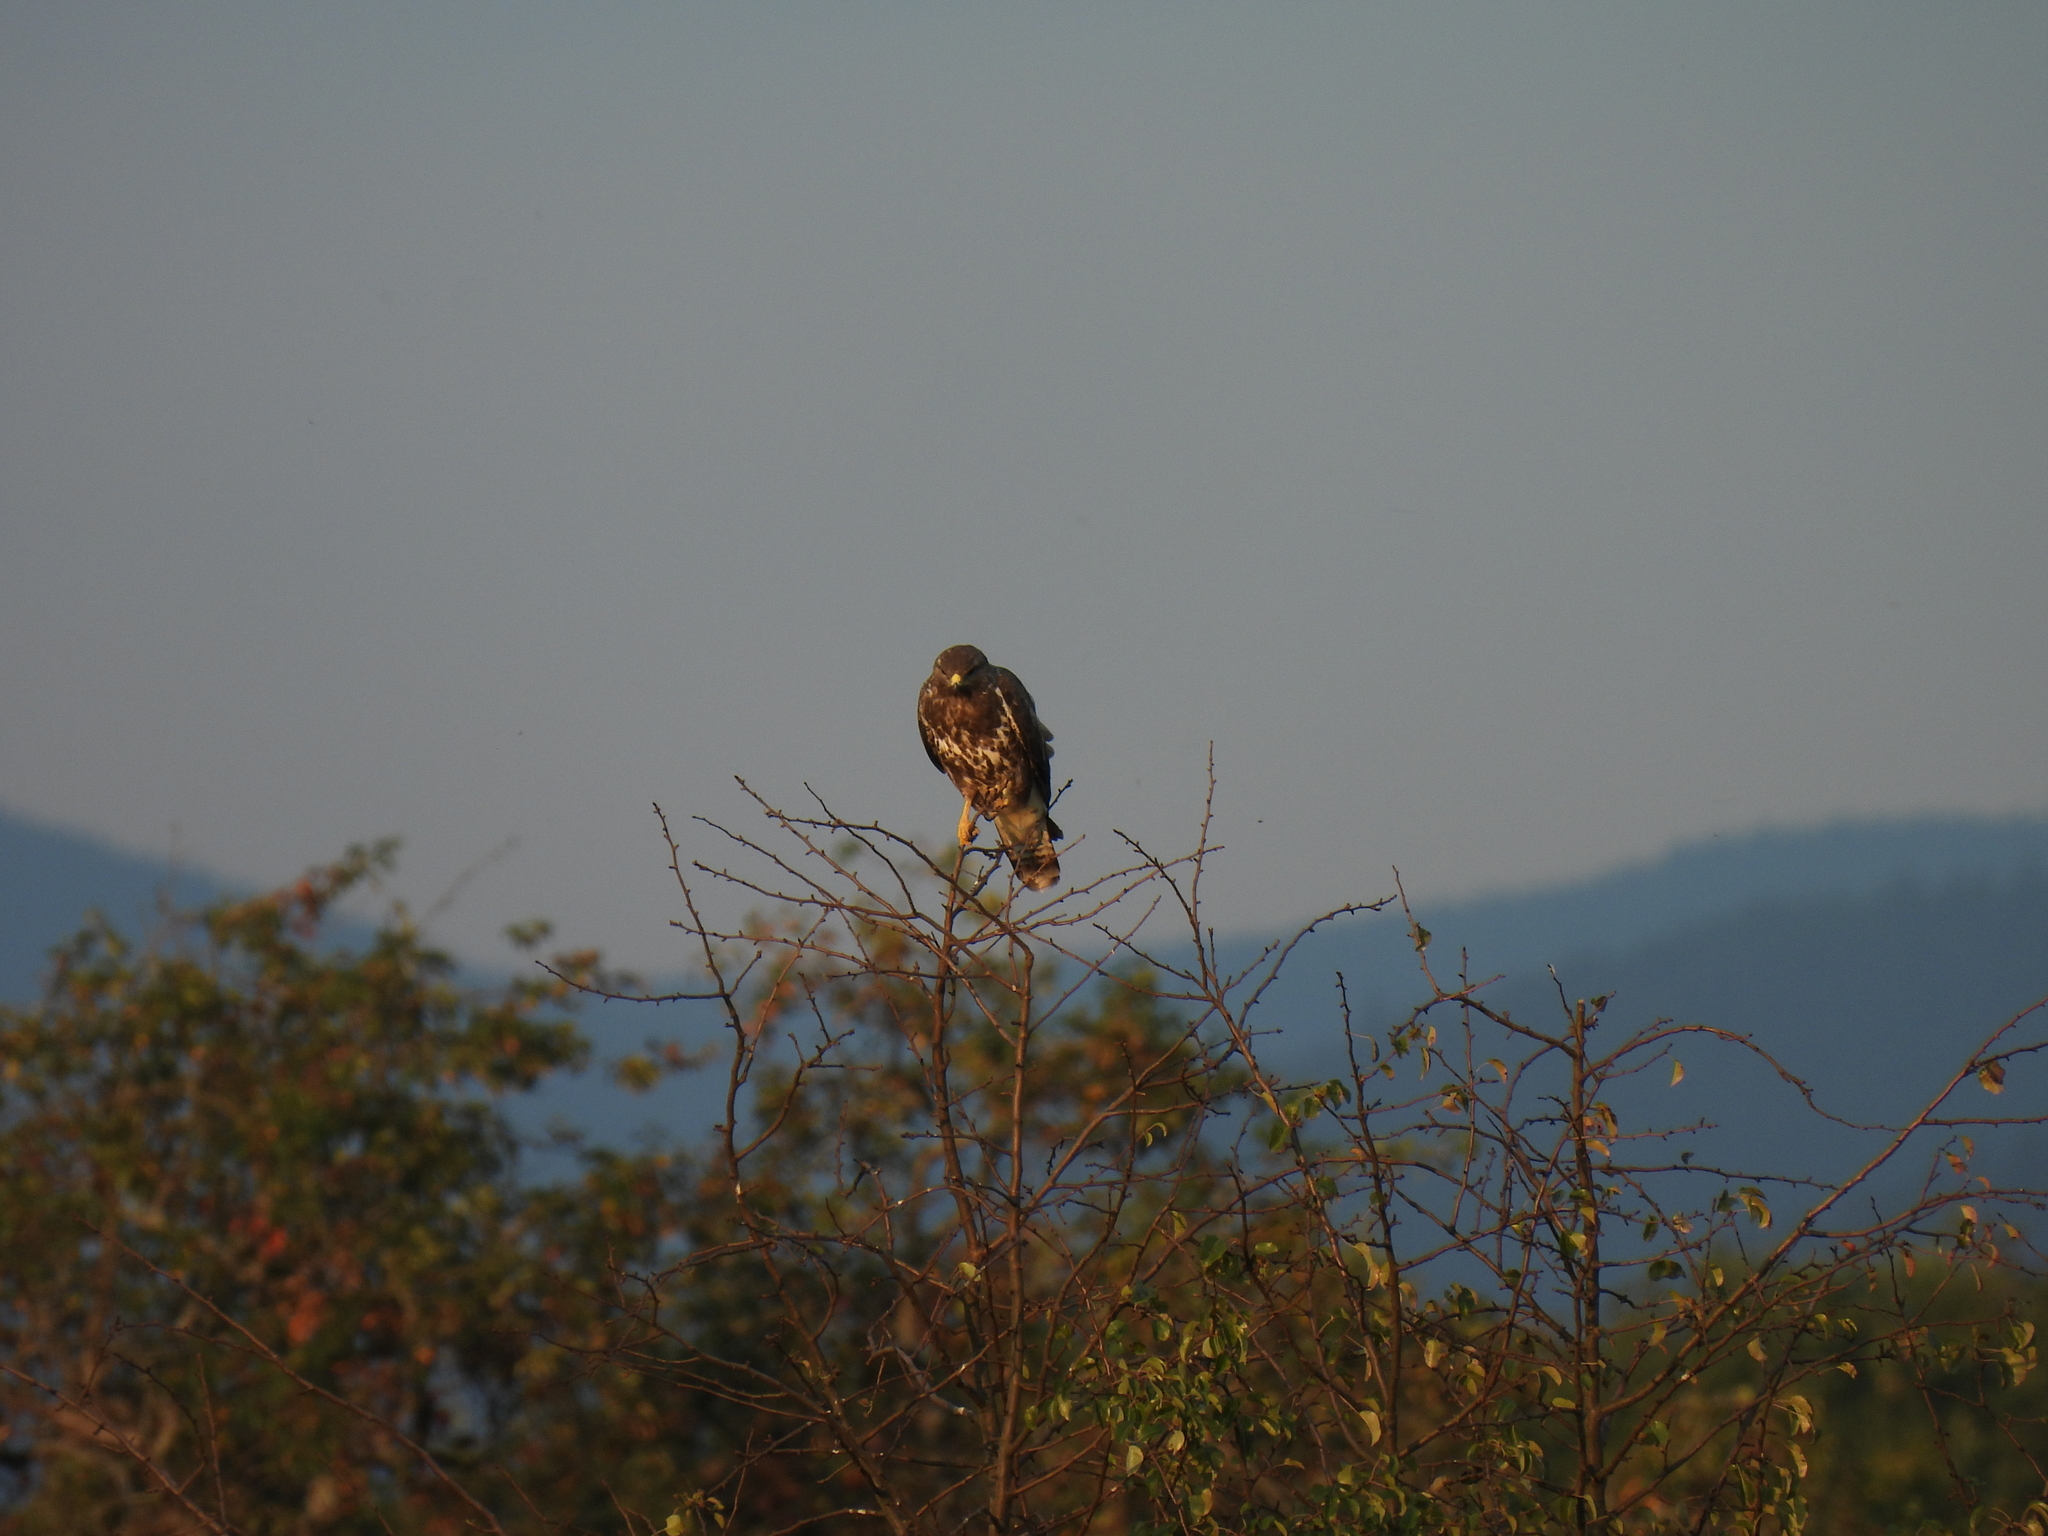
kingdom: Animalia
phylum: Chordata
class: Aves
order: Accipitriformes
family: Accipitridae
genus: Buteo
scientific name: Buteo buteo
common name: Common buzzard
